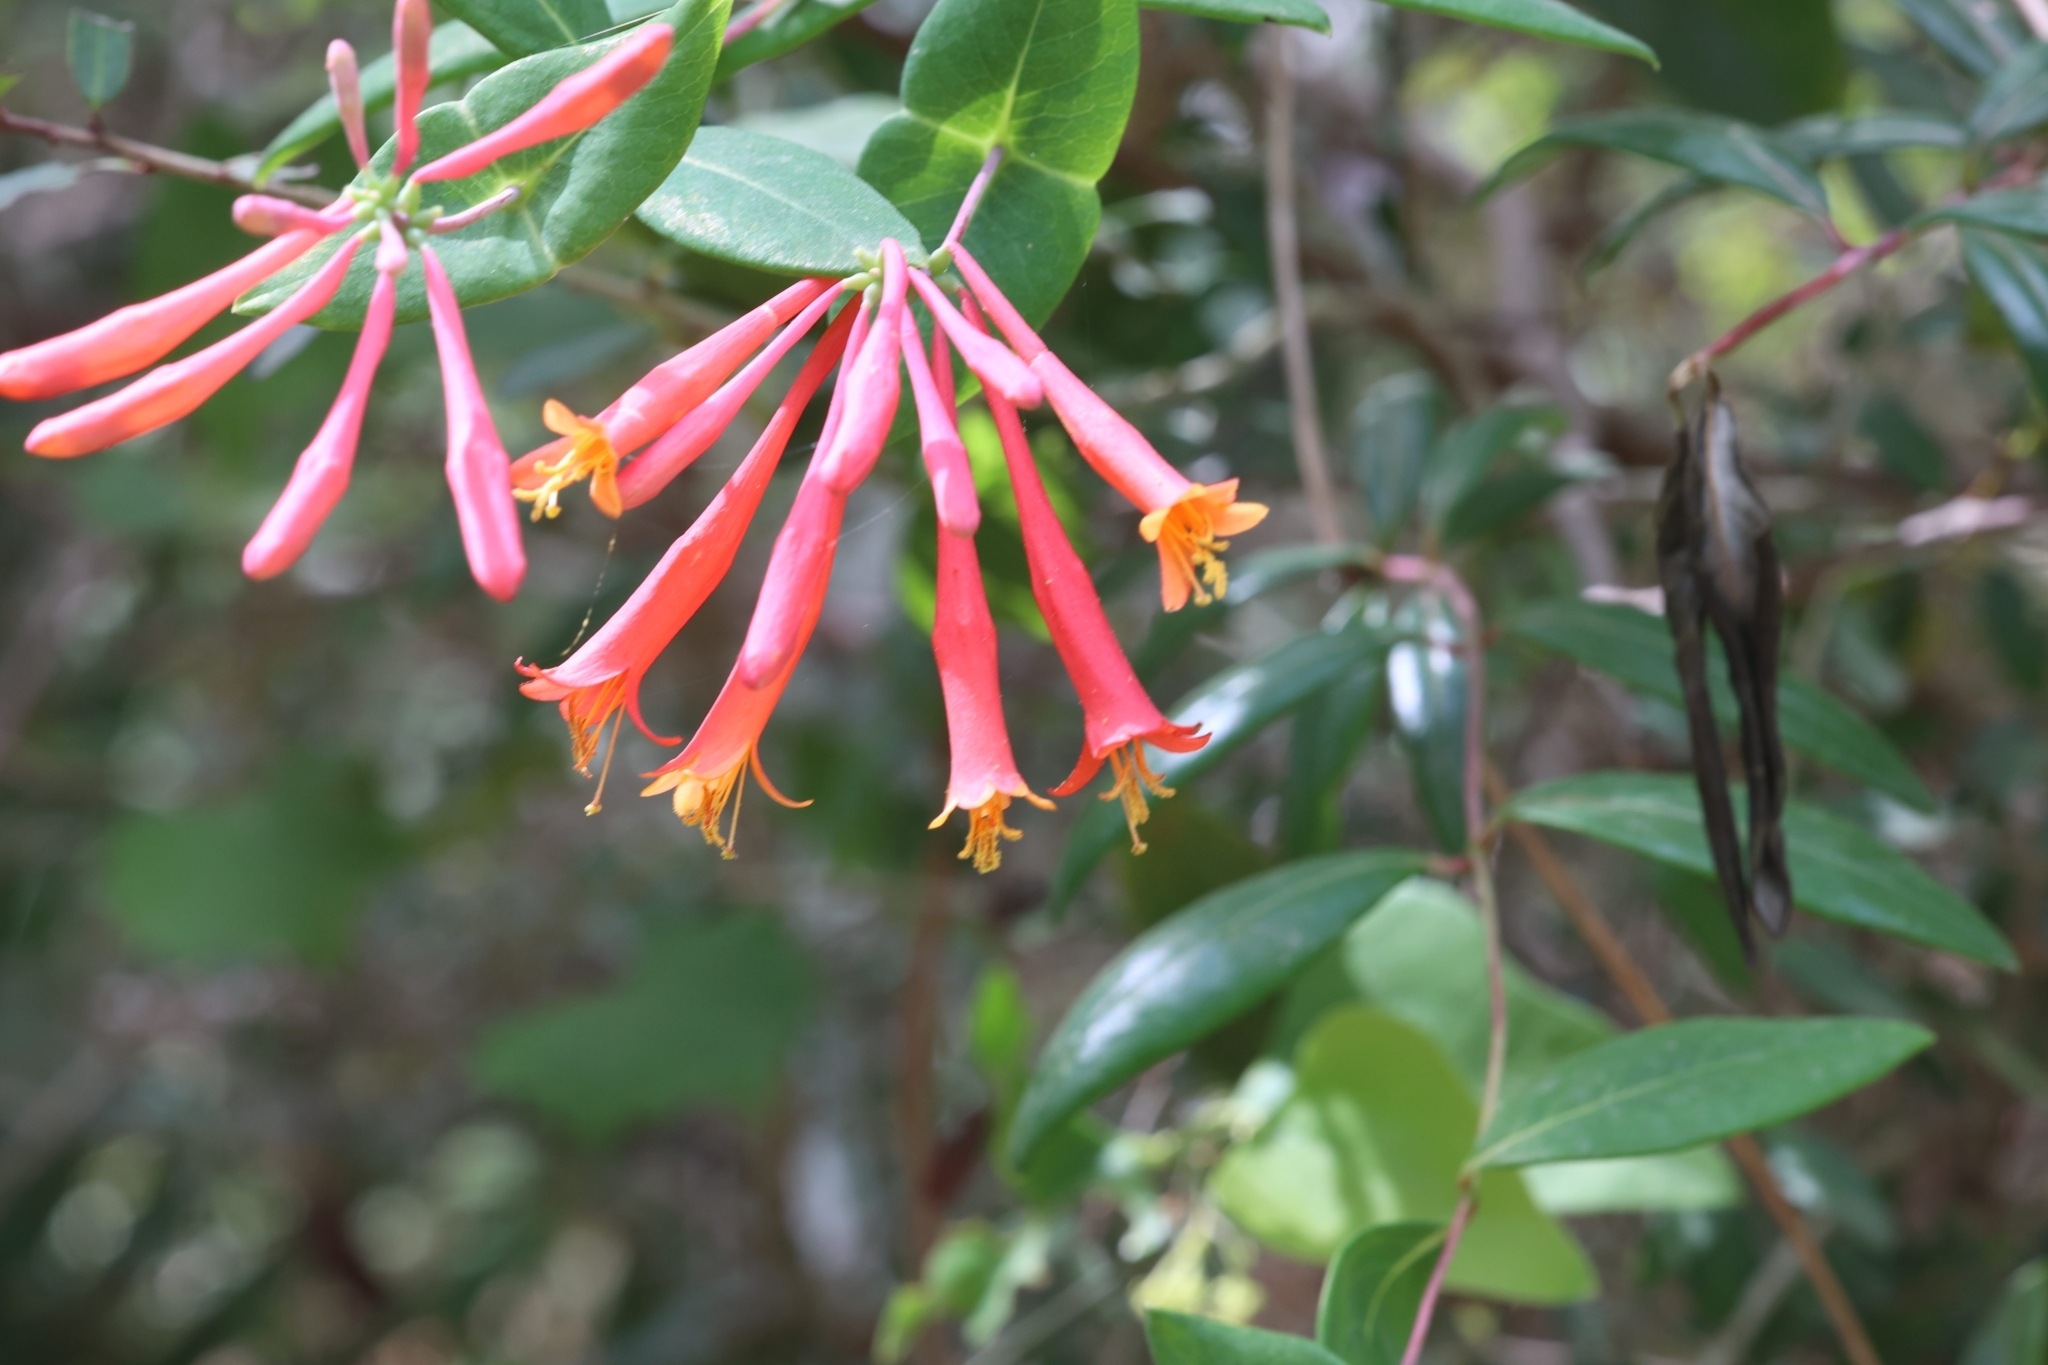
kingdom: Plantae
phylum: Tracheophyta
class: Magnoliopsida
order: Dipsacales
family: Caprifoliaceae
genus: Lonicera
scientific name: Lonicera sempervirens
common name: Coral honeysuckle
